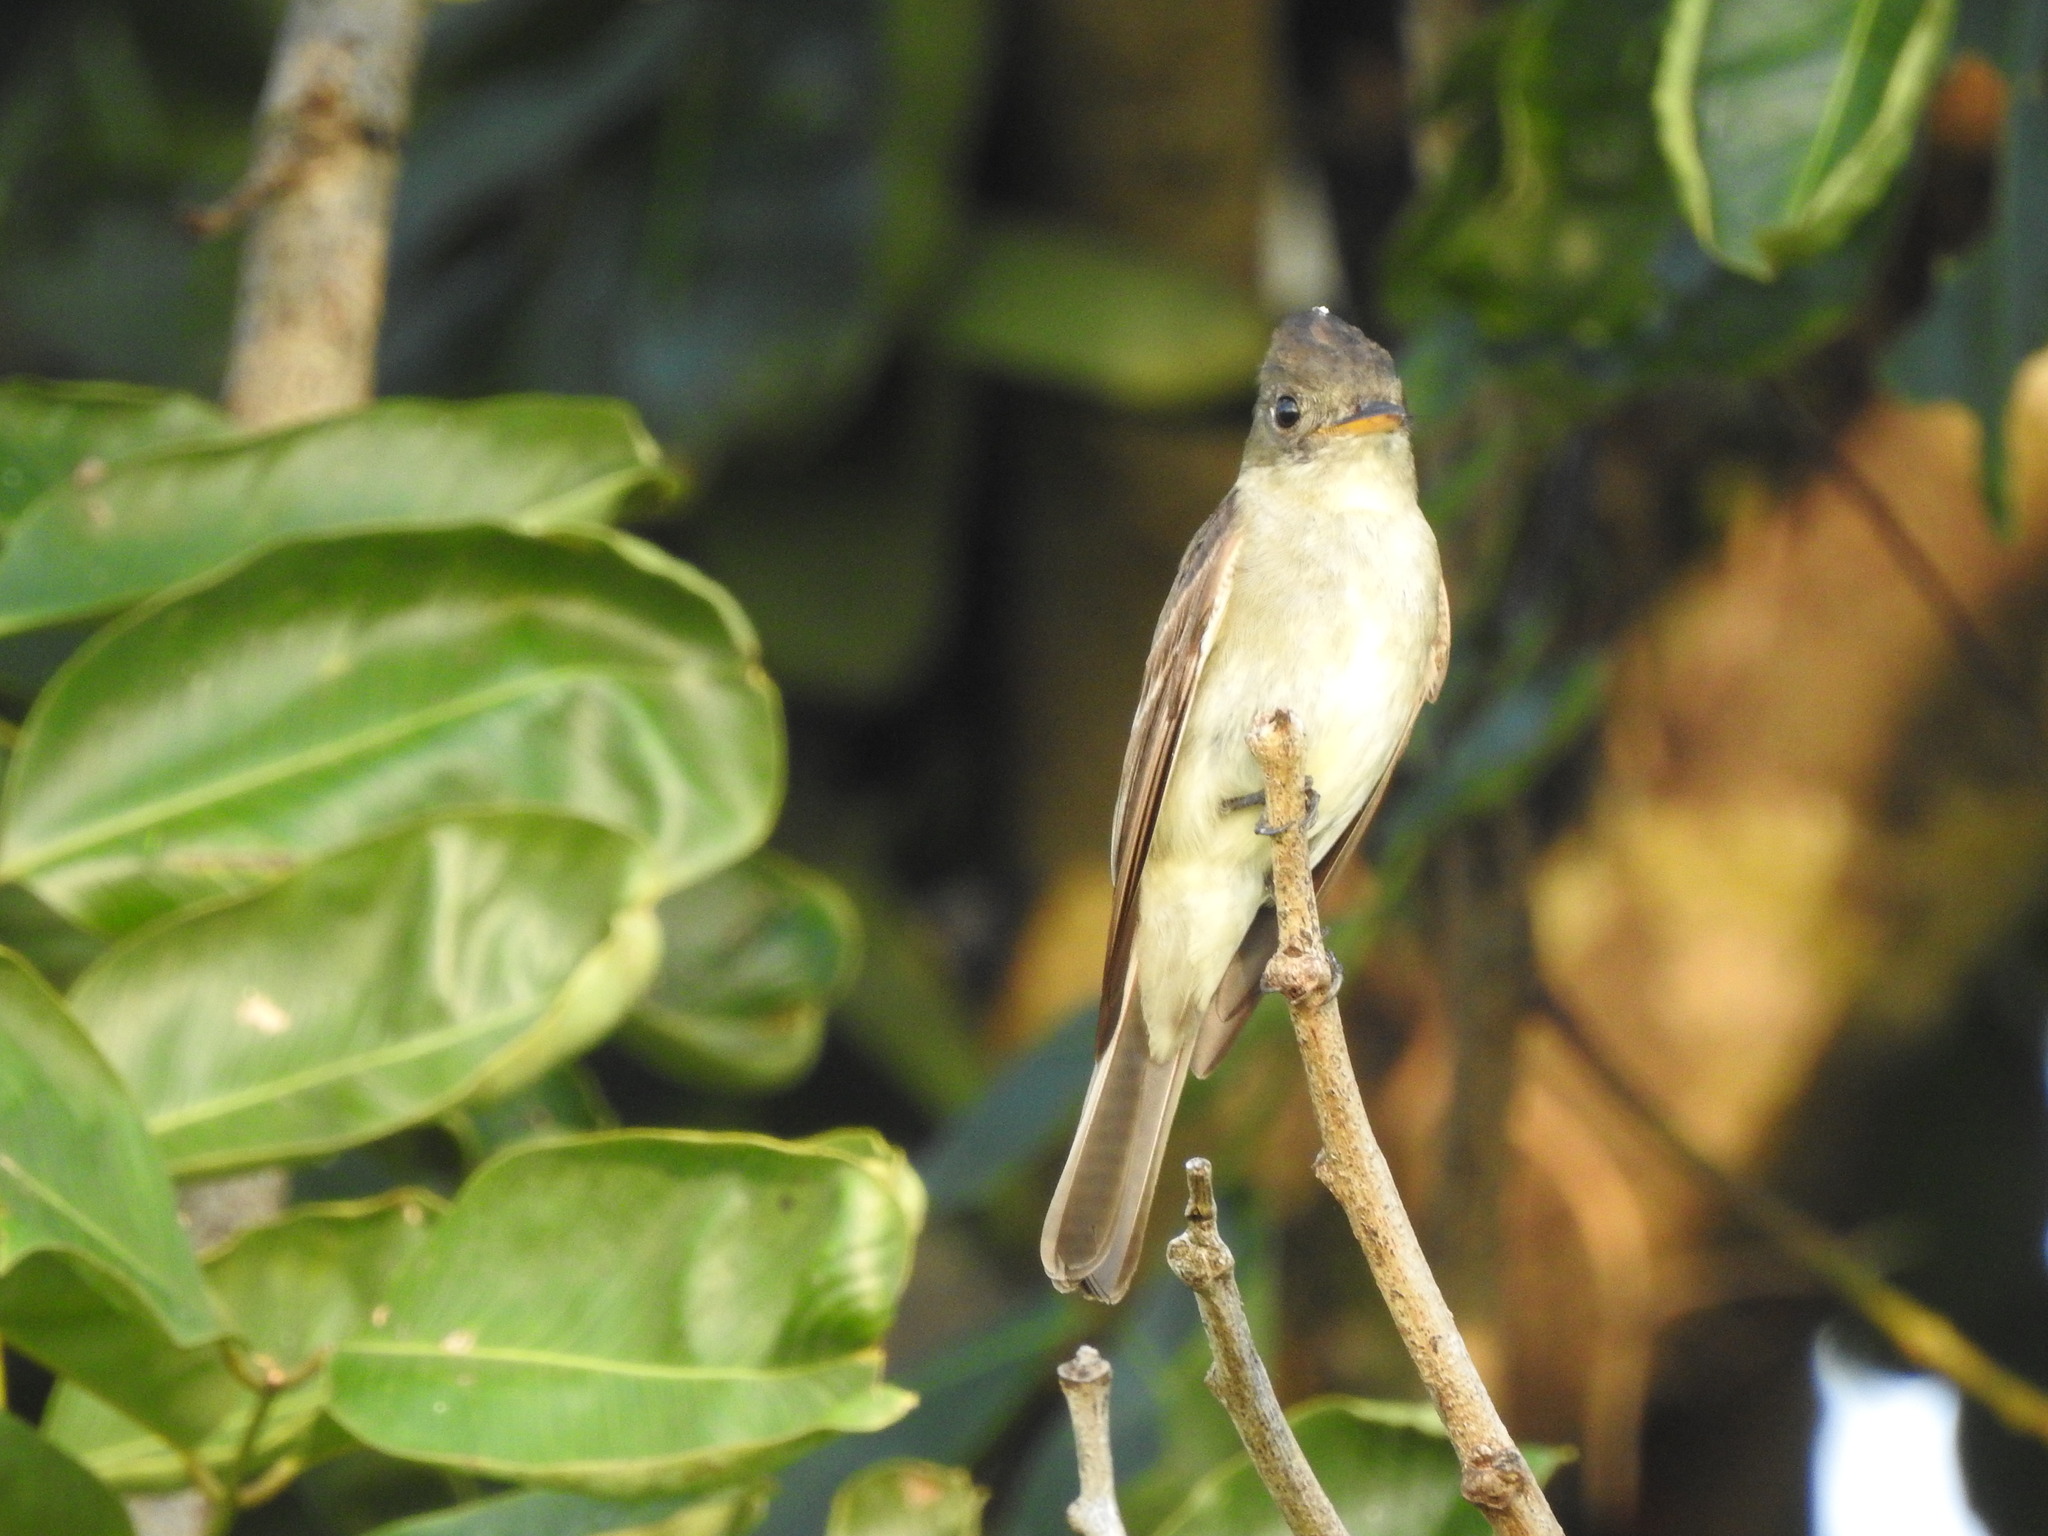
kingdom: Animalia
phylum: Chordata
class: Aves
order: Passeriformes
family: Tyrannidae
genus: Contopus
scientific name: Contopus virens
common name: Eastern wood-pewee
